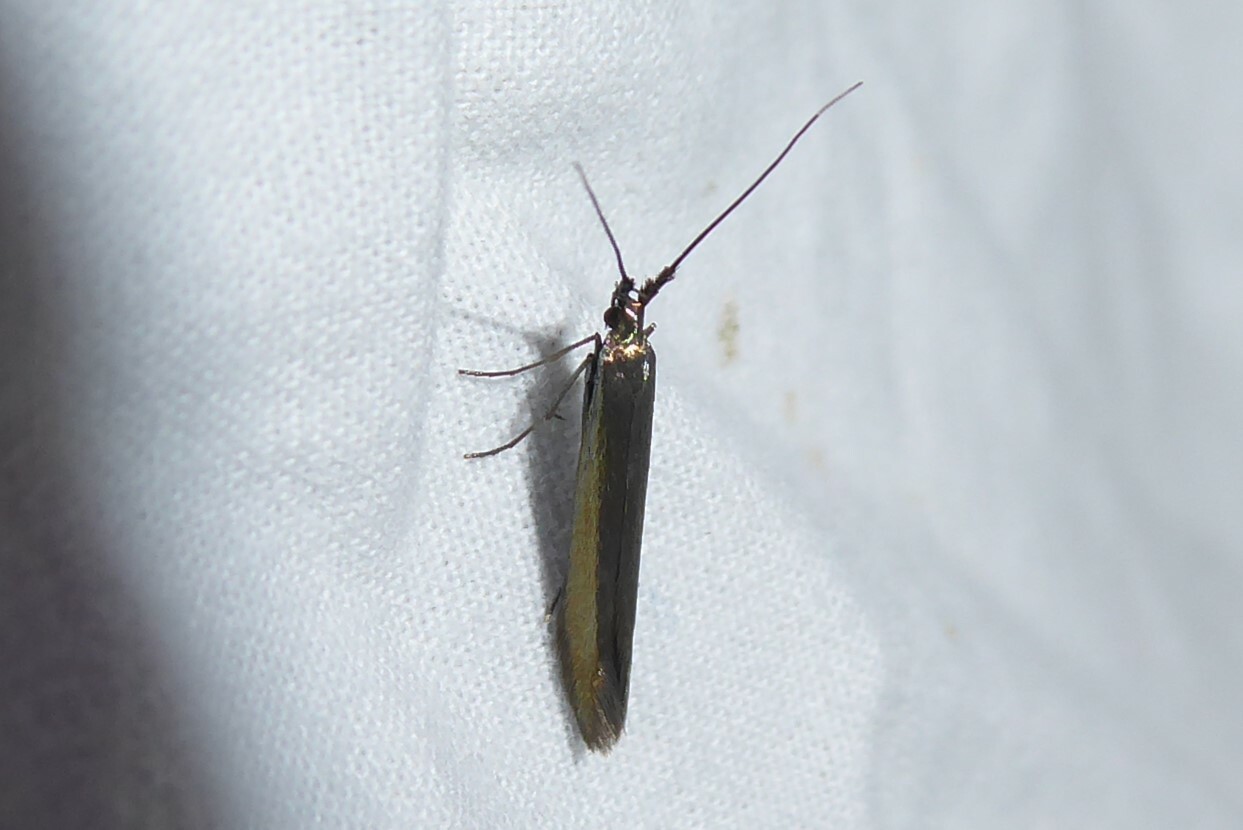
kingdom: Animalia
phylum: Arthropoda
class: Insecta
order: Lepidoptera
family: Coleophoridae
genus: Coleophora
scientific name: Coleophora alcyonipennella
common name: Clover case-bearer
